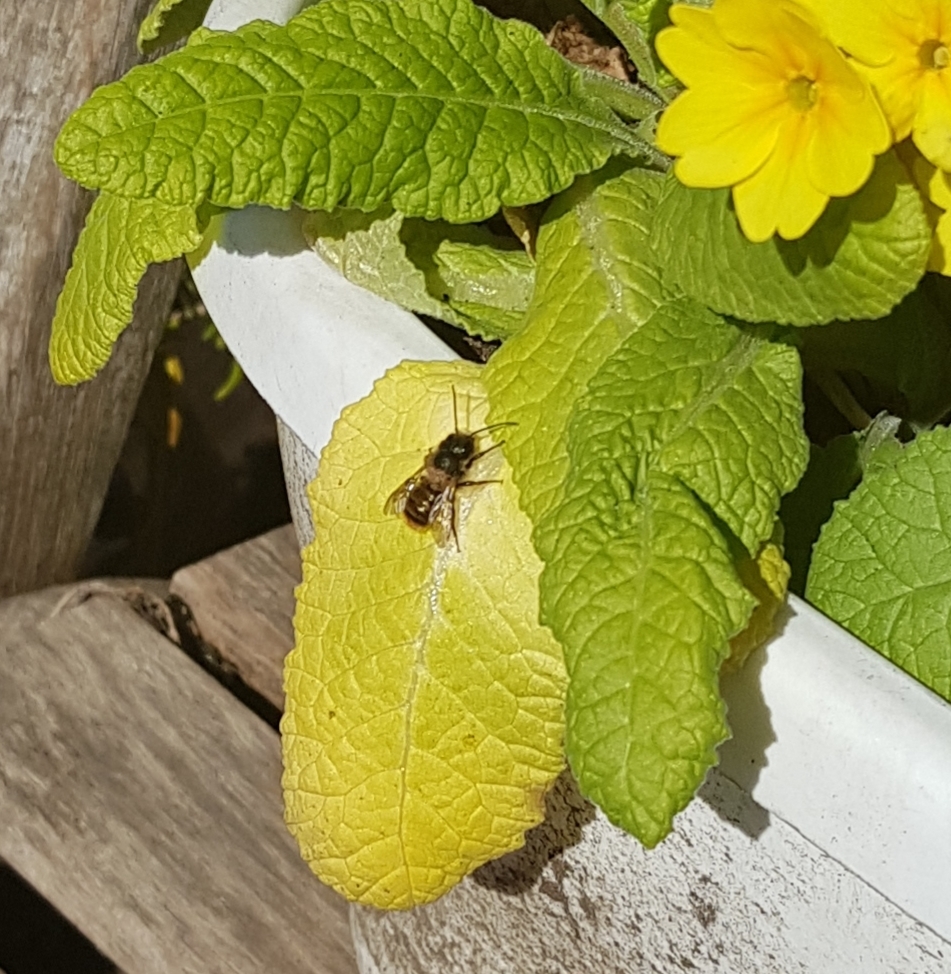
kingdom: Animalia
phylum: Arthropoda
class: Insecta
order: Hymenoptera
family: Megachilidae
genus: Osmia
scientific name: Osmia bicornis
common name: Red mason bee
